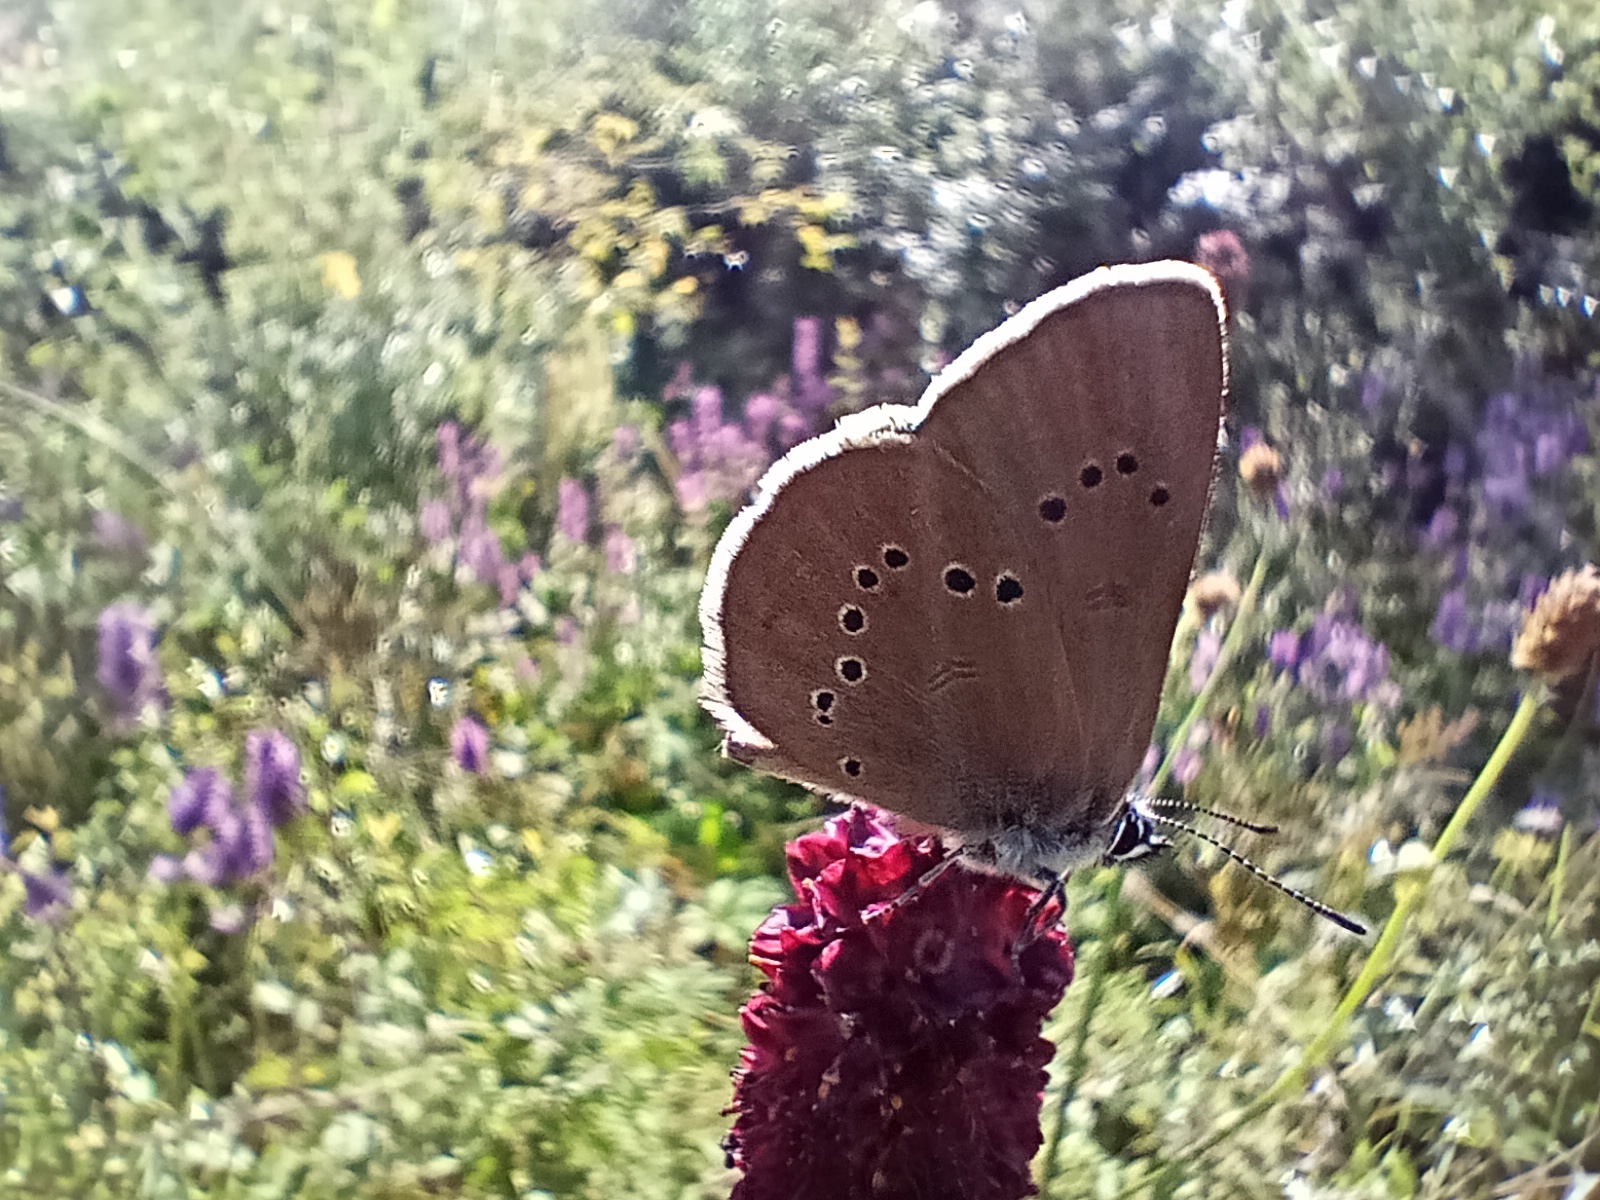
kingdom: Animalia
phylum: Arthropoda
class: Insecta
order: Lepidoptera
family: Lycaenidae
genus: Maculinea
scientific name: Maculinea nausithous
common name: Dusky large blue
